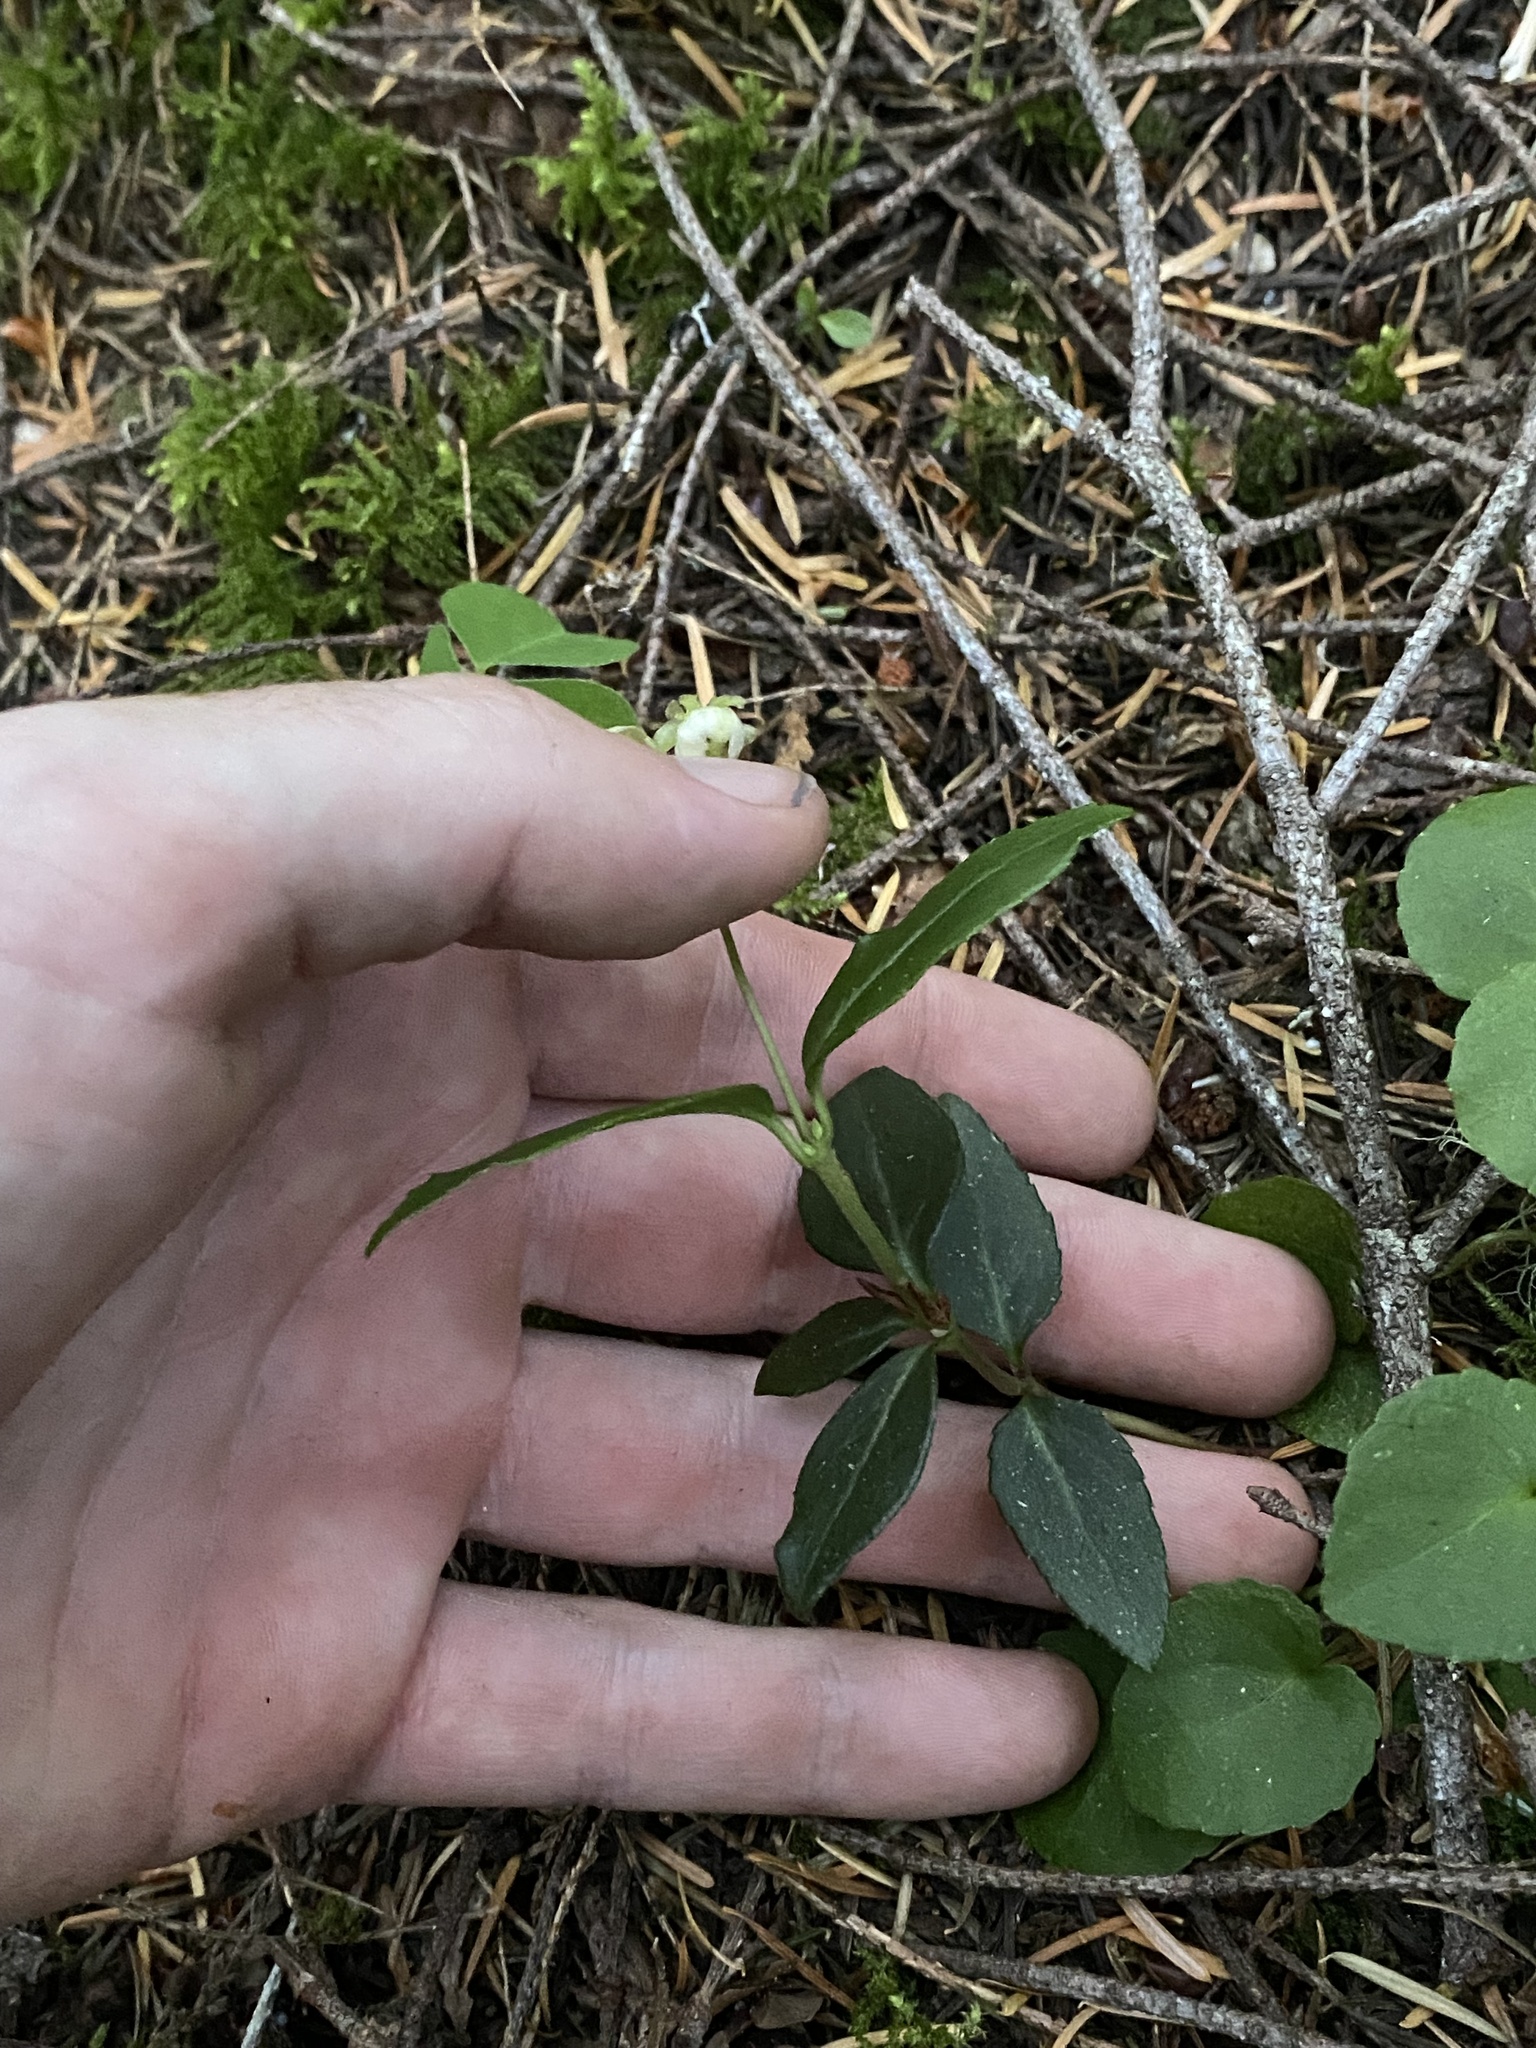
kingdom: Plantae
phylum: Tracheophyta
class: Magnoliopsida
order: Ericales
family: Ericaceae
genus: Chimaphila
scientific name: Chimaphila menziesii
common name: Menzies' pipsissewa
